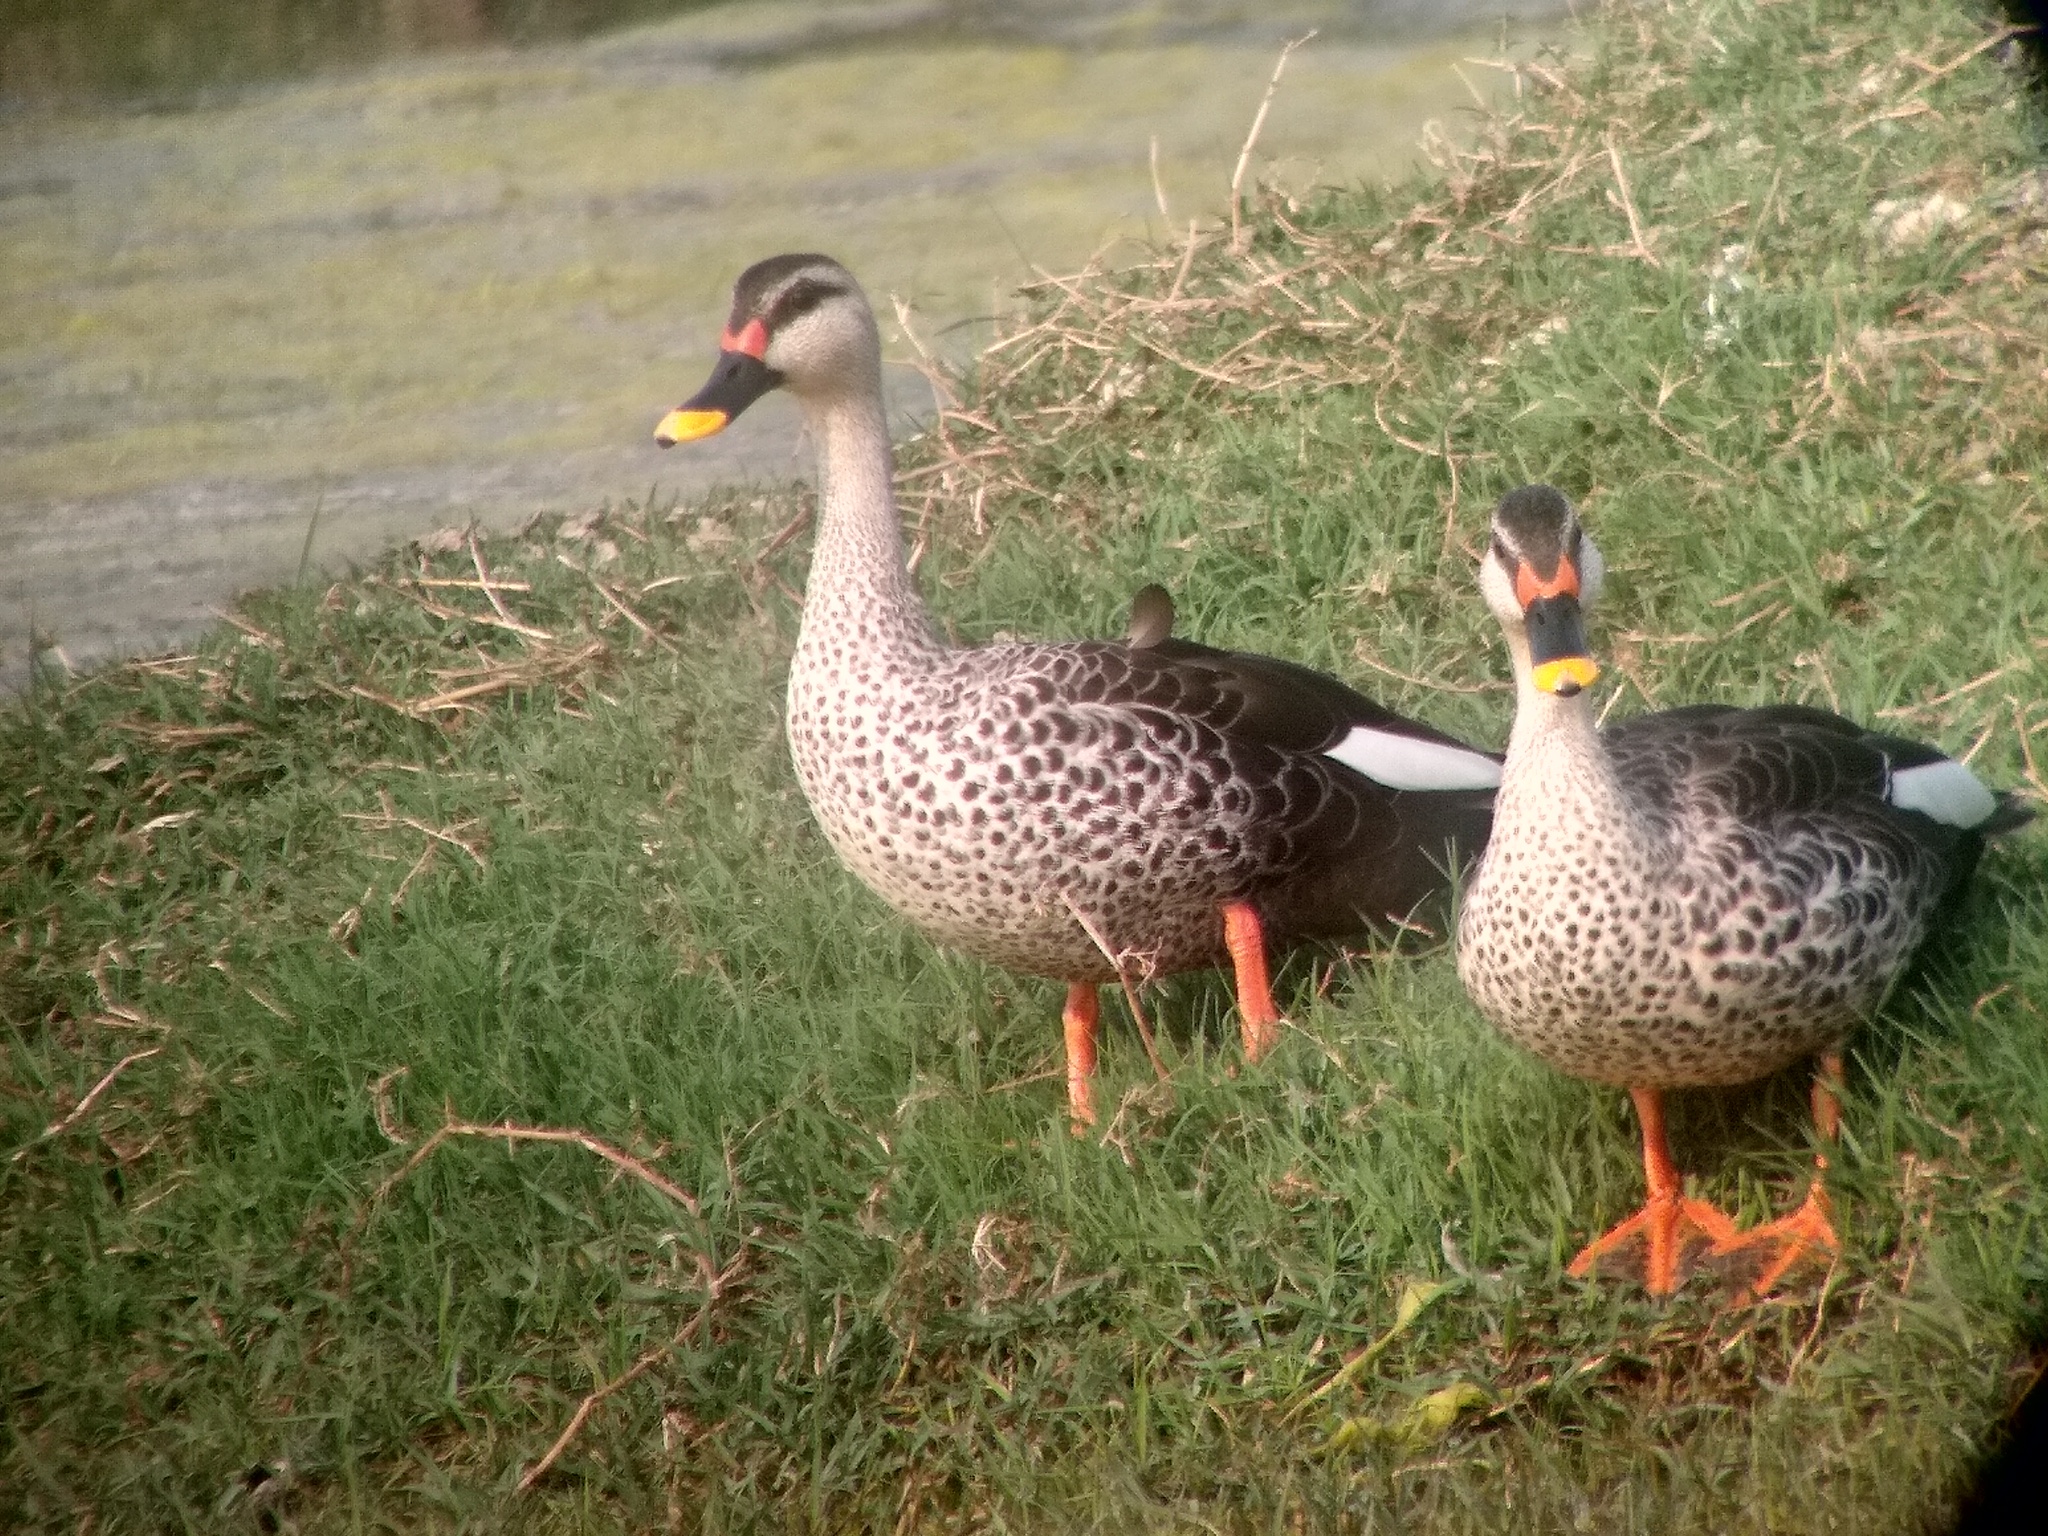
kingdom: Animalia
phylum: Chordata
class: Aves
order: Anseriformes
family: Anatidae
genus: Anas
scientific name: Anas poecilorhyncha
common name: Indian spot-billed duck
